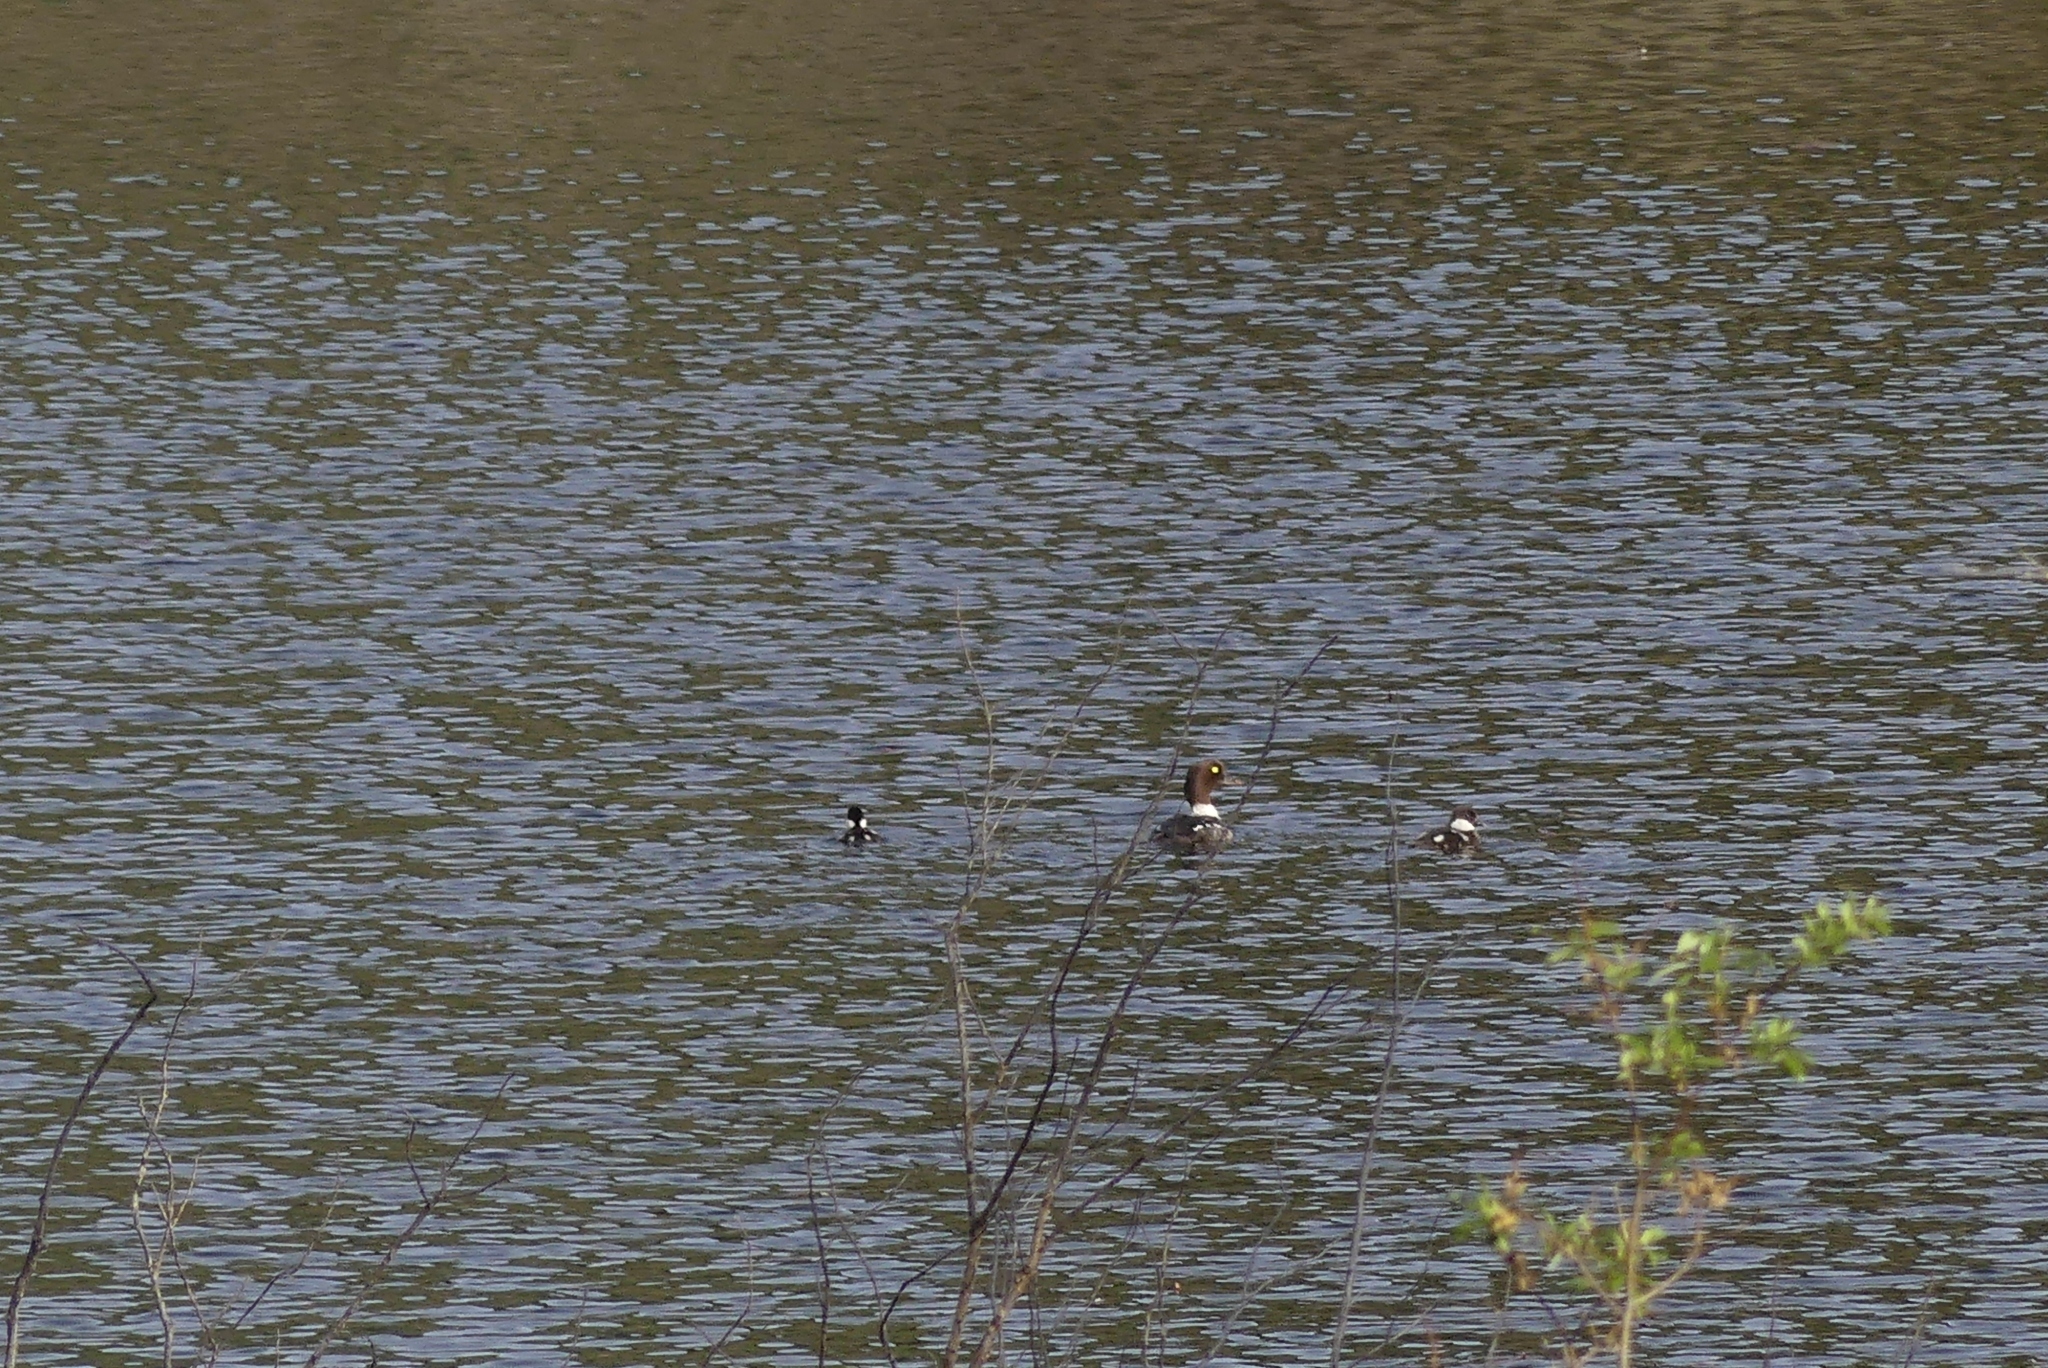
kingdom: Animalia
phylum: Chordata
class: Aves
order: Anseriformes
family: Anatidae
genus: Bucephala
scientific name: Bucephala clangula
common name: Common goldeneye
